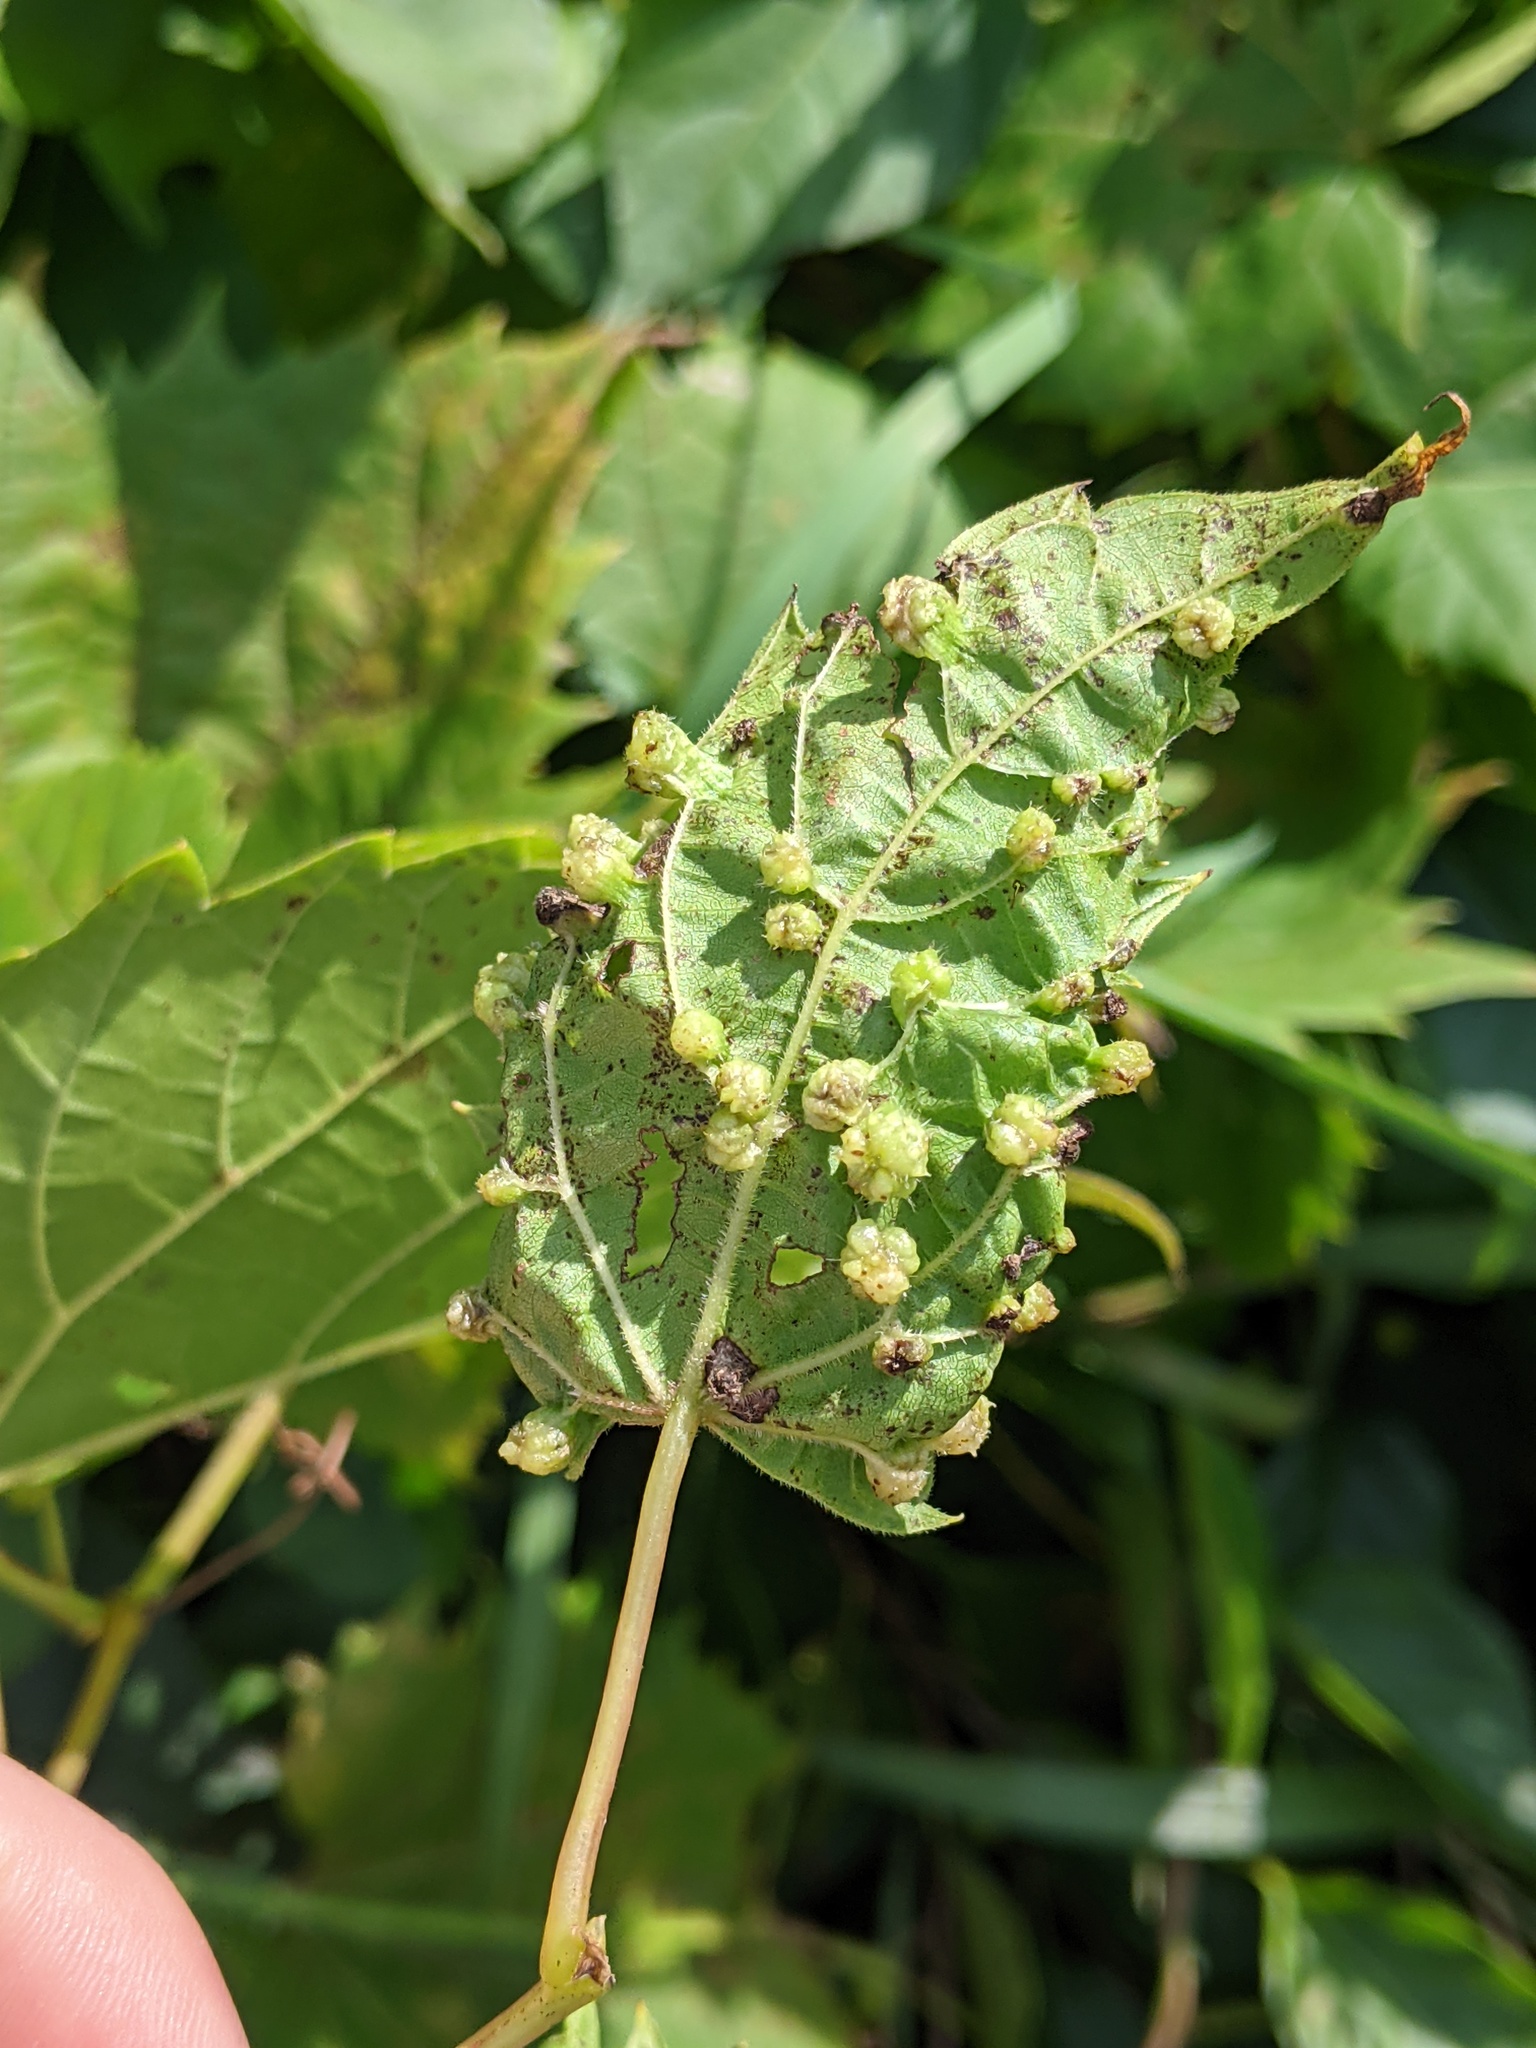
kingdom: Animalia
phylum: Arthropoda
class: Insecta
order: Hemiptera
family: Phylloxeridae
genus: Daktulosphaira
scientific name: Daktulosphaira vitifoliae
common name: Grape phylloxera
